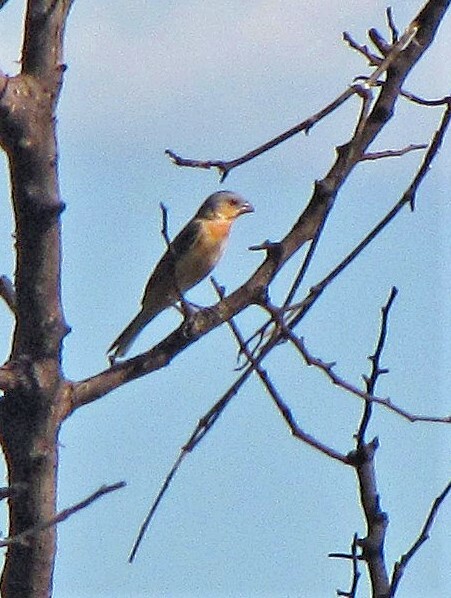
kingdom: Animalia
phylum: Chordata
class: Aves
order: Passeriformes
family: Thraupidae
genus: Sporophila
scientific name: Sporophila hypoxantha
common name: Tawny-bellied seedeater
